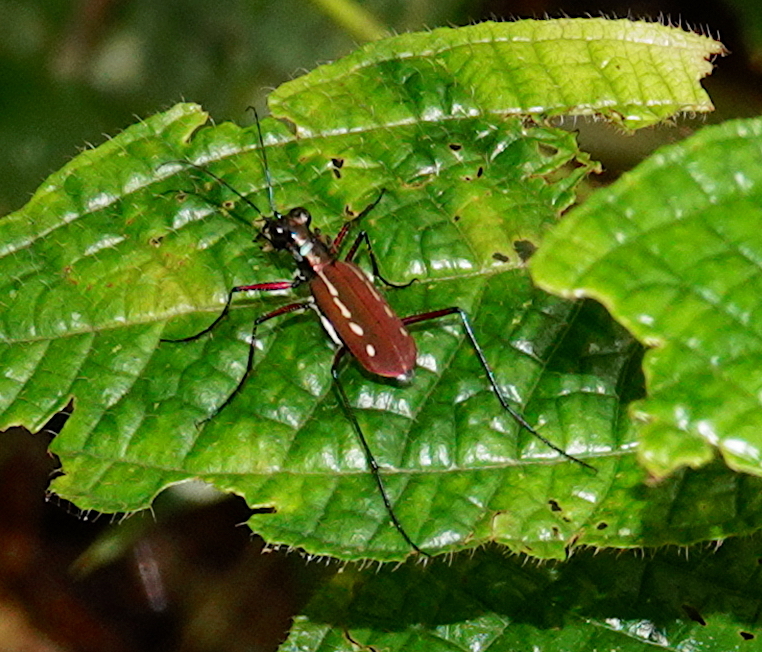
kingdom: Animalia
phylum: Arthropoda
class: Insecta
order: Coleoptera
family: Carabidae
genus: Cicindela
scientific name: Cicindela lacrymans
